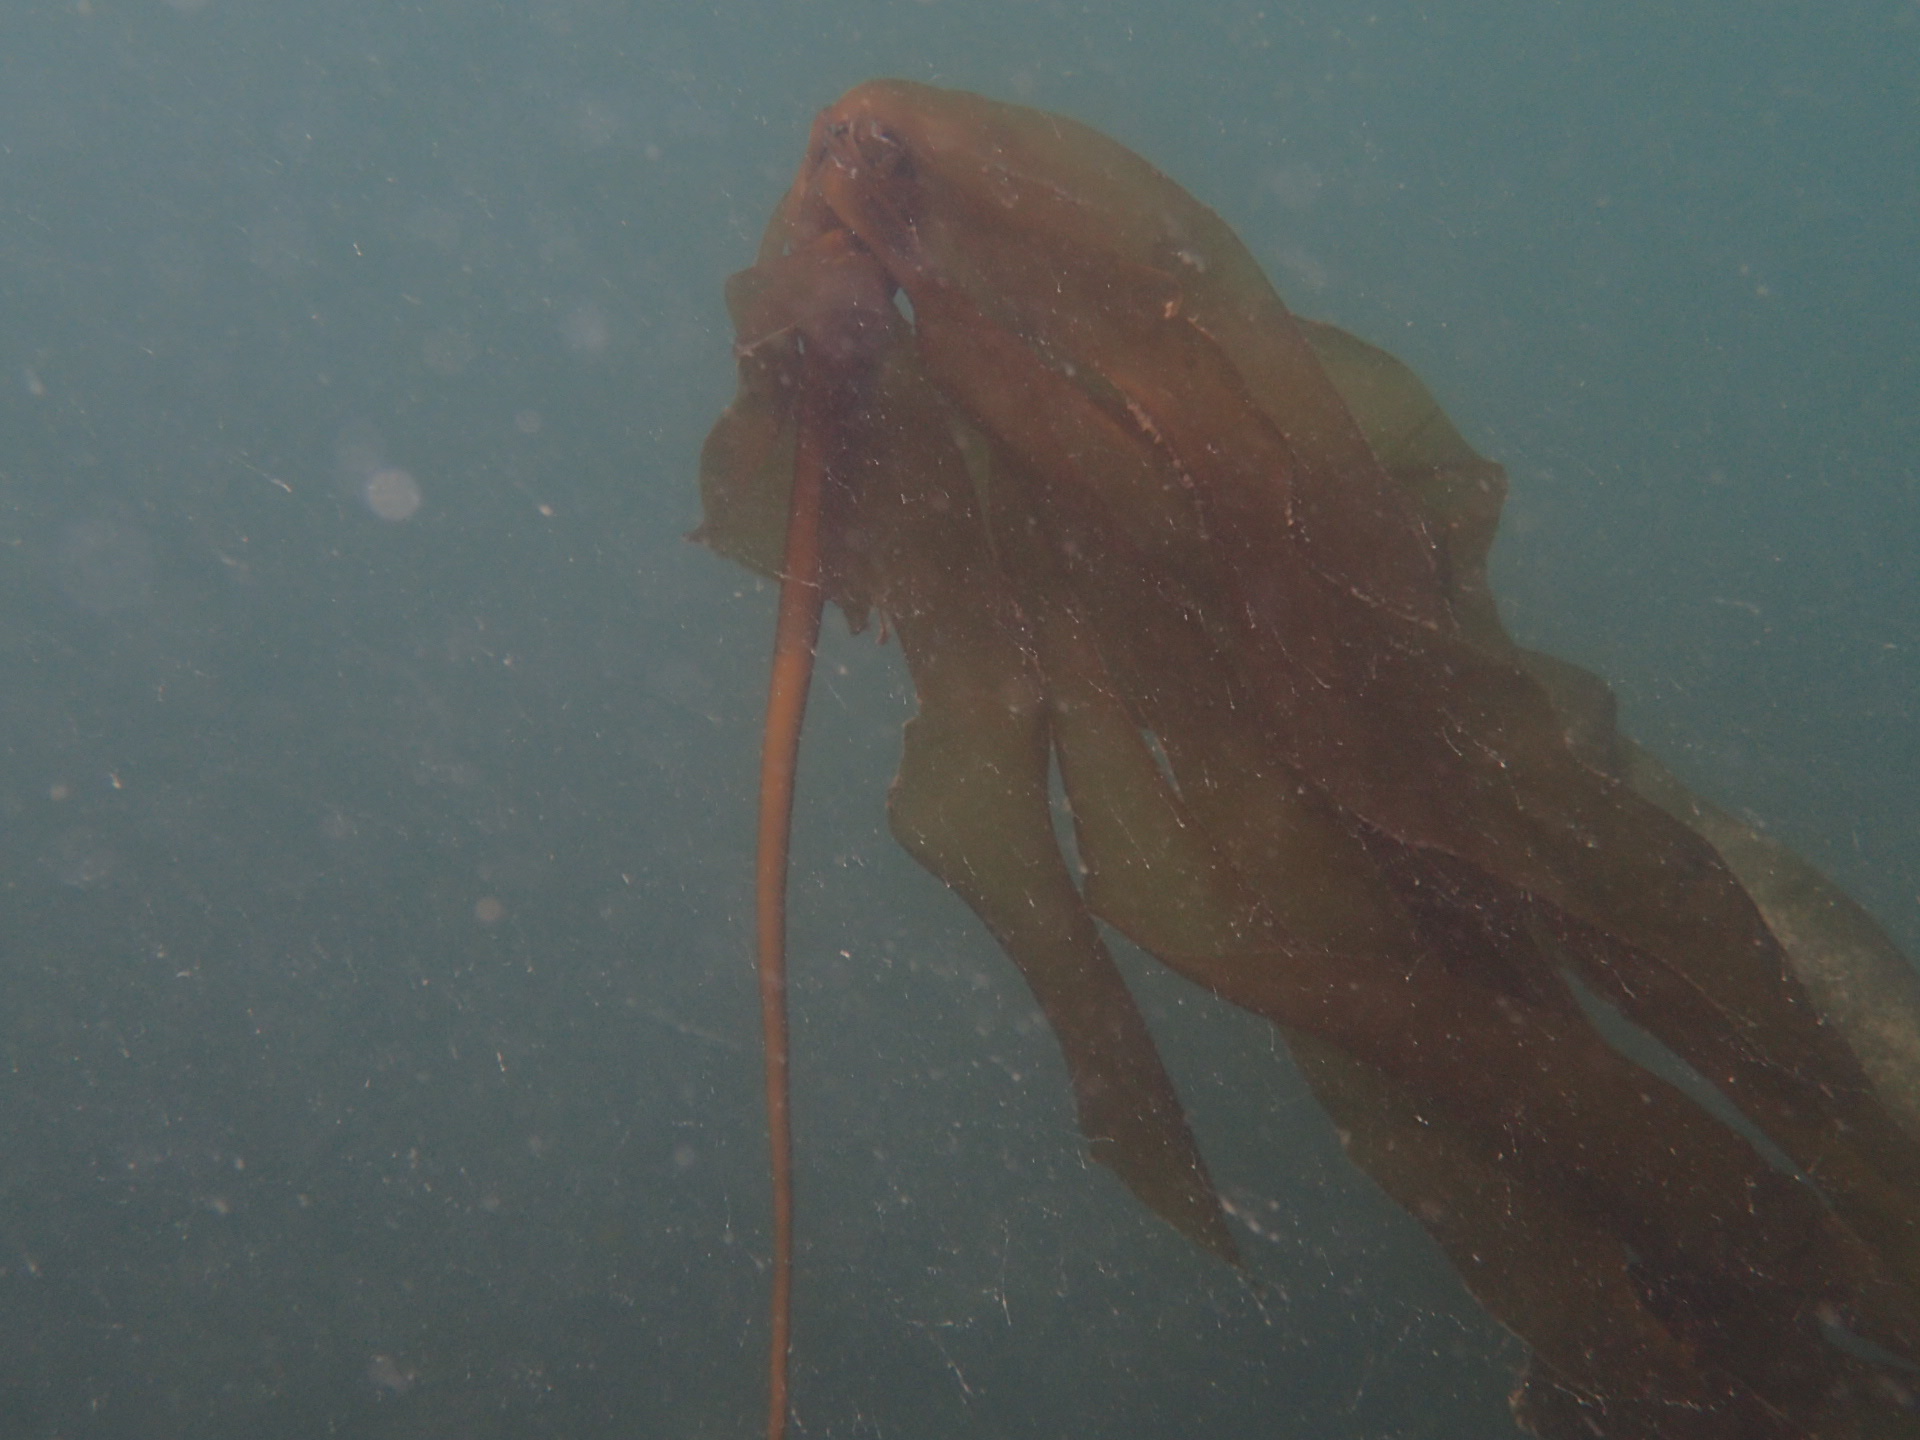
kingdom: Chromista
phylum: Ochrophyta
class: Phaeophyceae
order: Laminariales
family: Laminariaceae
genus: Nereocystis
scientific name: Nereocystis luetkeana
